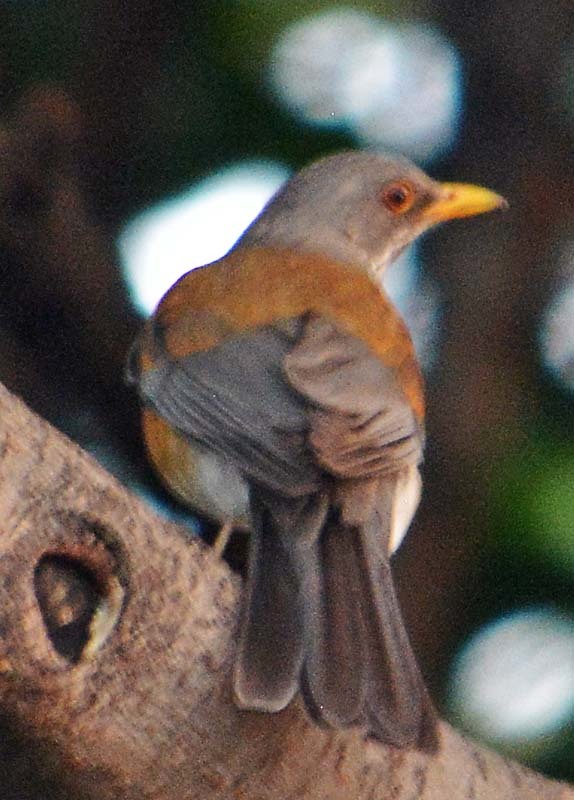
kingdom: Animalia
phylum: Chordata
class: Aves
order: Passeriformes
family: Turdidae
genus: Turdus
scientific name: Turdus rufopalliatus
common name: Rufous-backed robin
